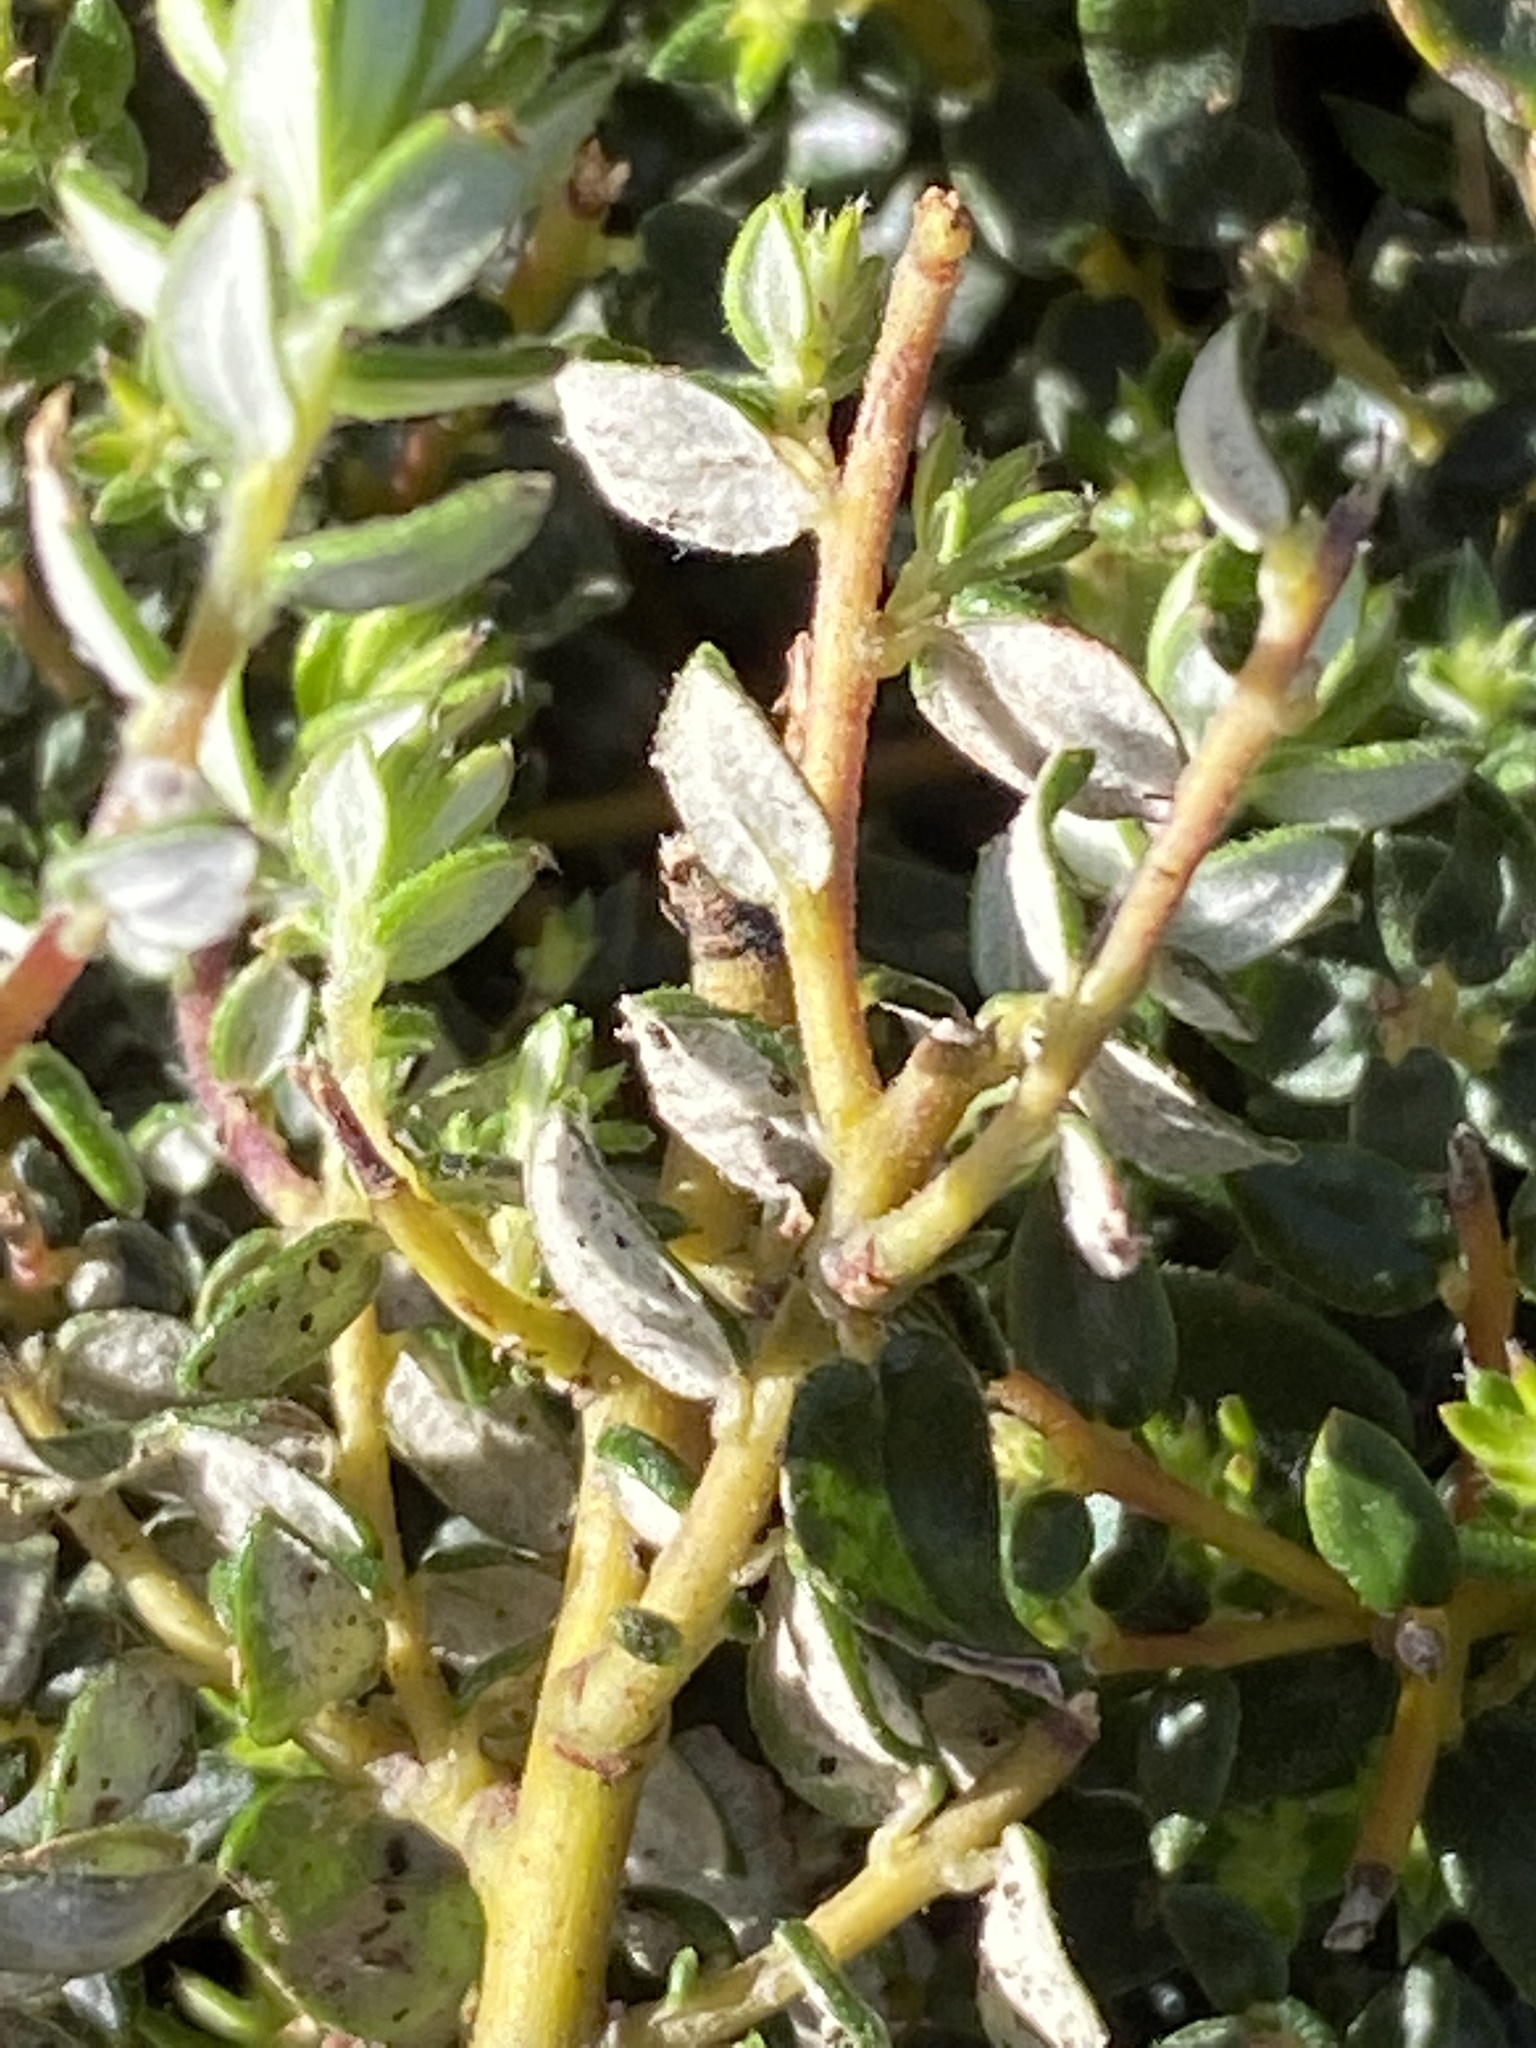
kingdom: Plantae
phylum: Tracheophyta
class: Magnoliopsida
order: Rosales
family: Rhamnaceae
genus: Phylica
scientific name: Phylica parviflora
